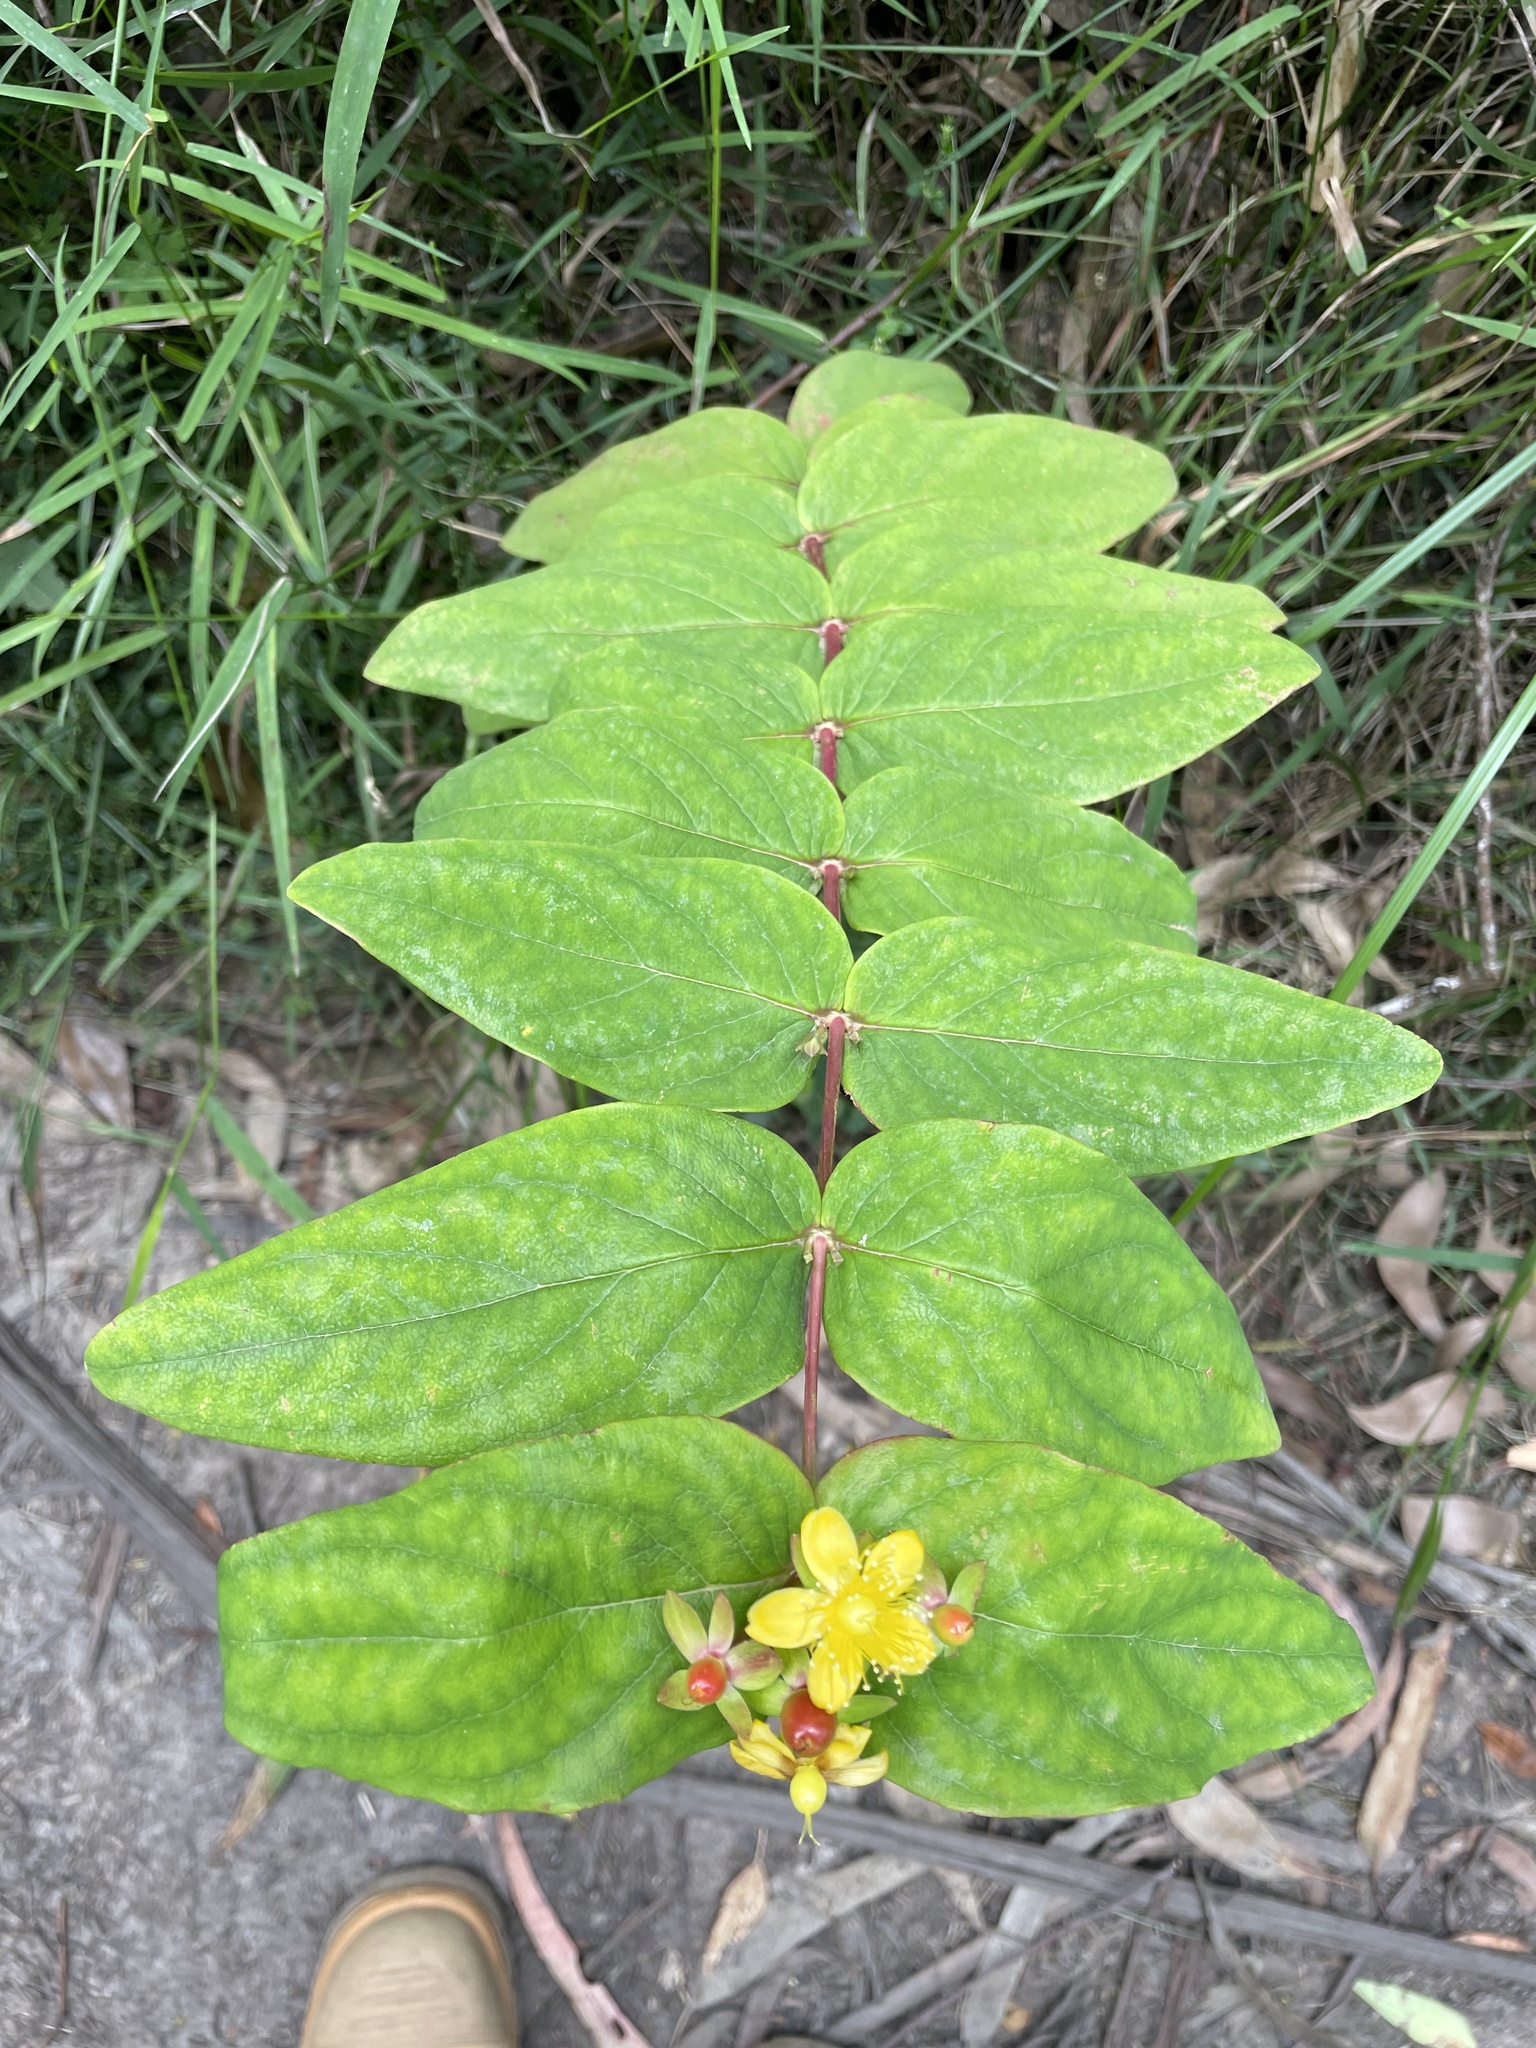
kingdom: Plantae
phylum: Tracheophyta
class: Magnoliopsida
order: Malpighiales
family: Hypericaceae
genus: Hypericum
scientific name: Hypericum androsaemum
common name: Sweet-amber
